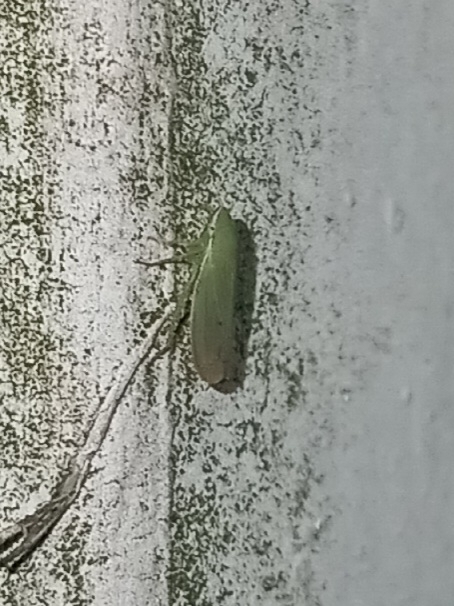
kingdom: Animalia
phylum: Arthropoda
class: Insecta
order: Hemiptera
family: Cicadellidae
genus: Memnonia
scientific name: Memnonia flavida
